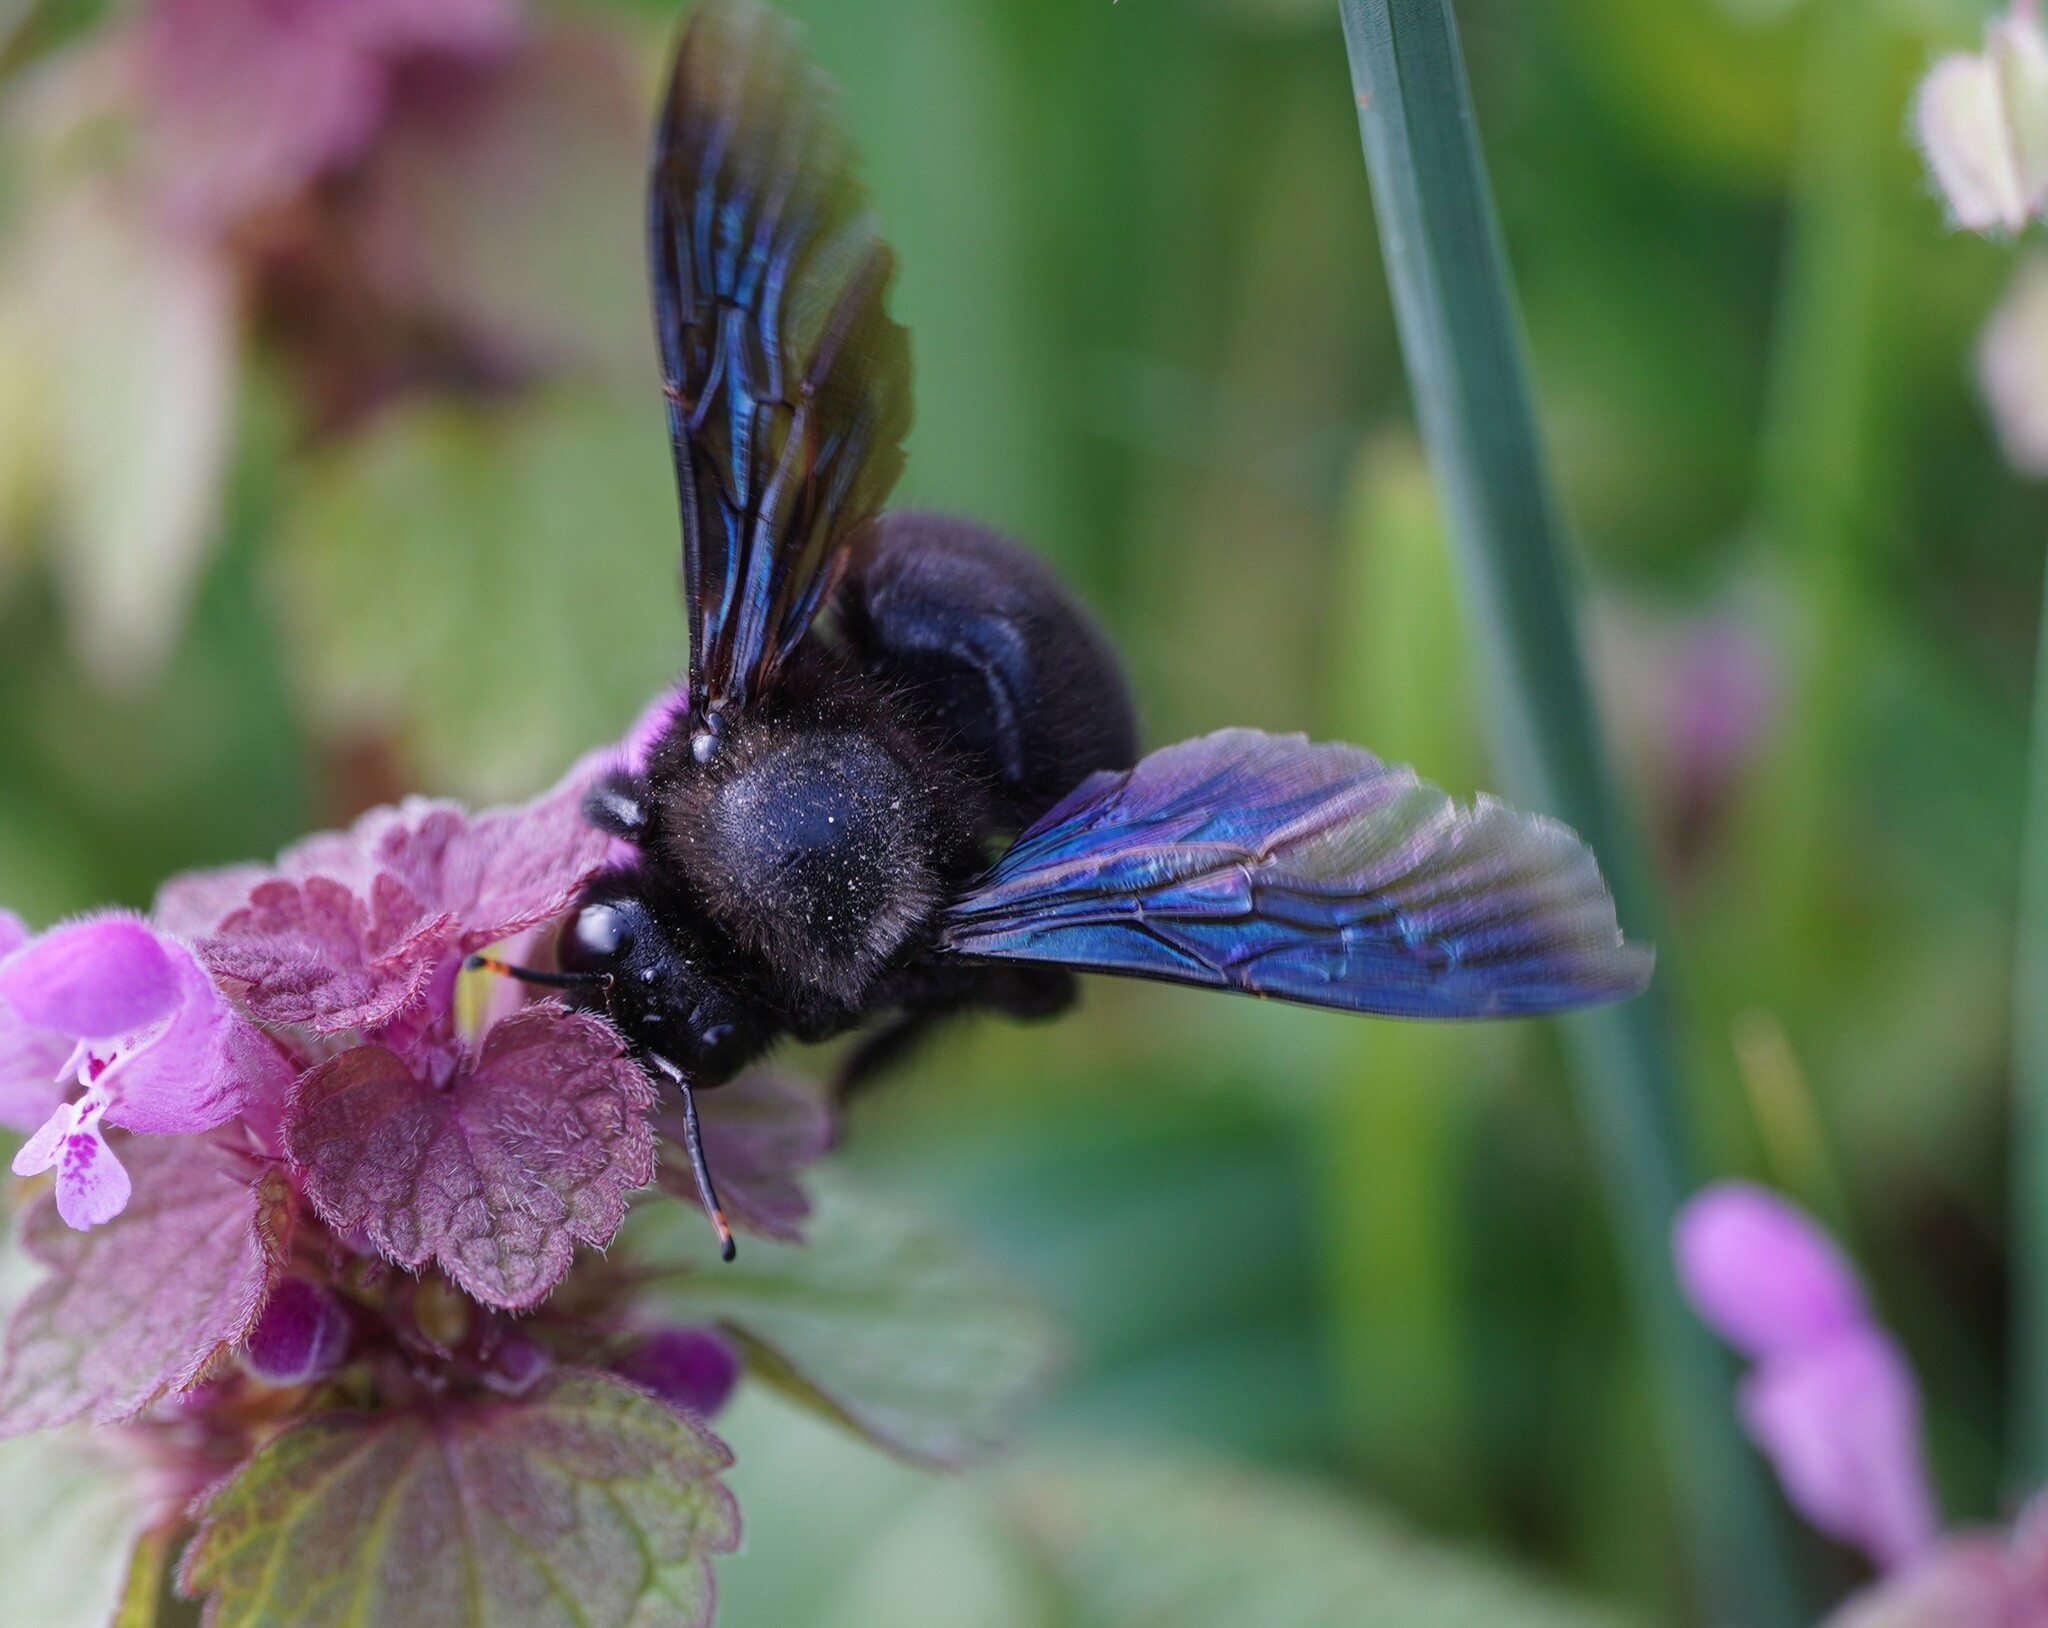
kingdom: Animalia
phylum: Arthropoda
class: Insecta
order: Hymenoptera
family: Apidae
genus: Xylocopa
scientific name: Xylocopa violacea
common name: Violet carpenter bee
